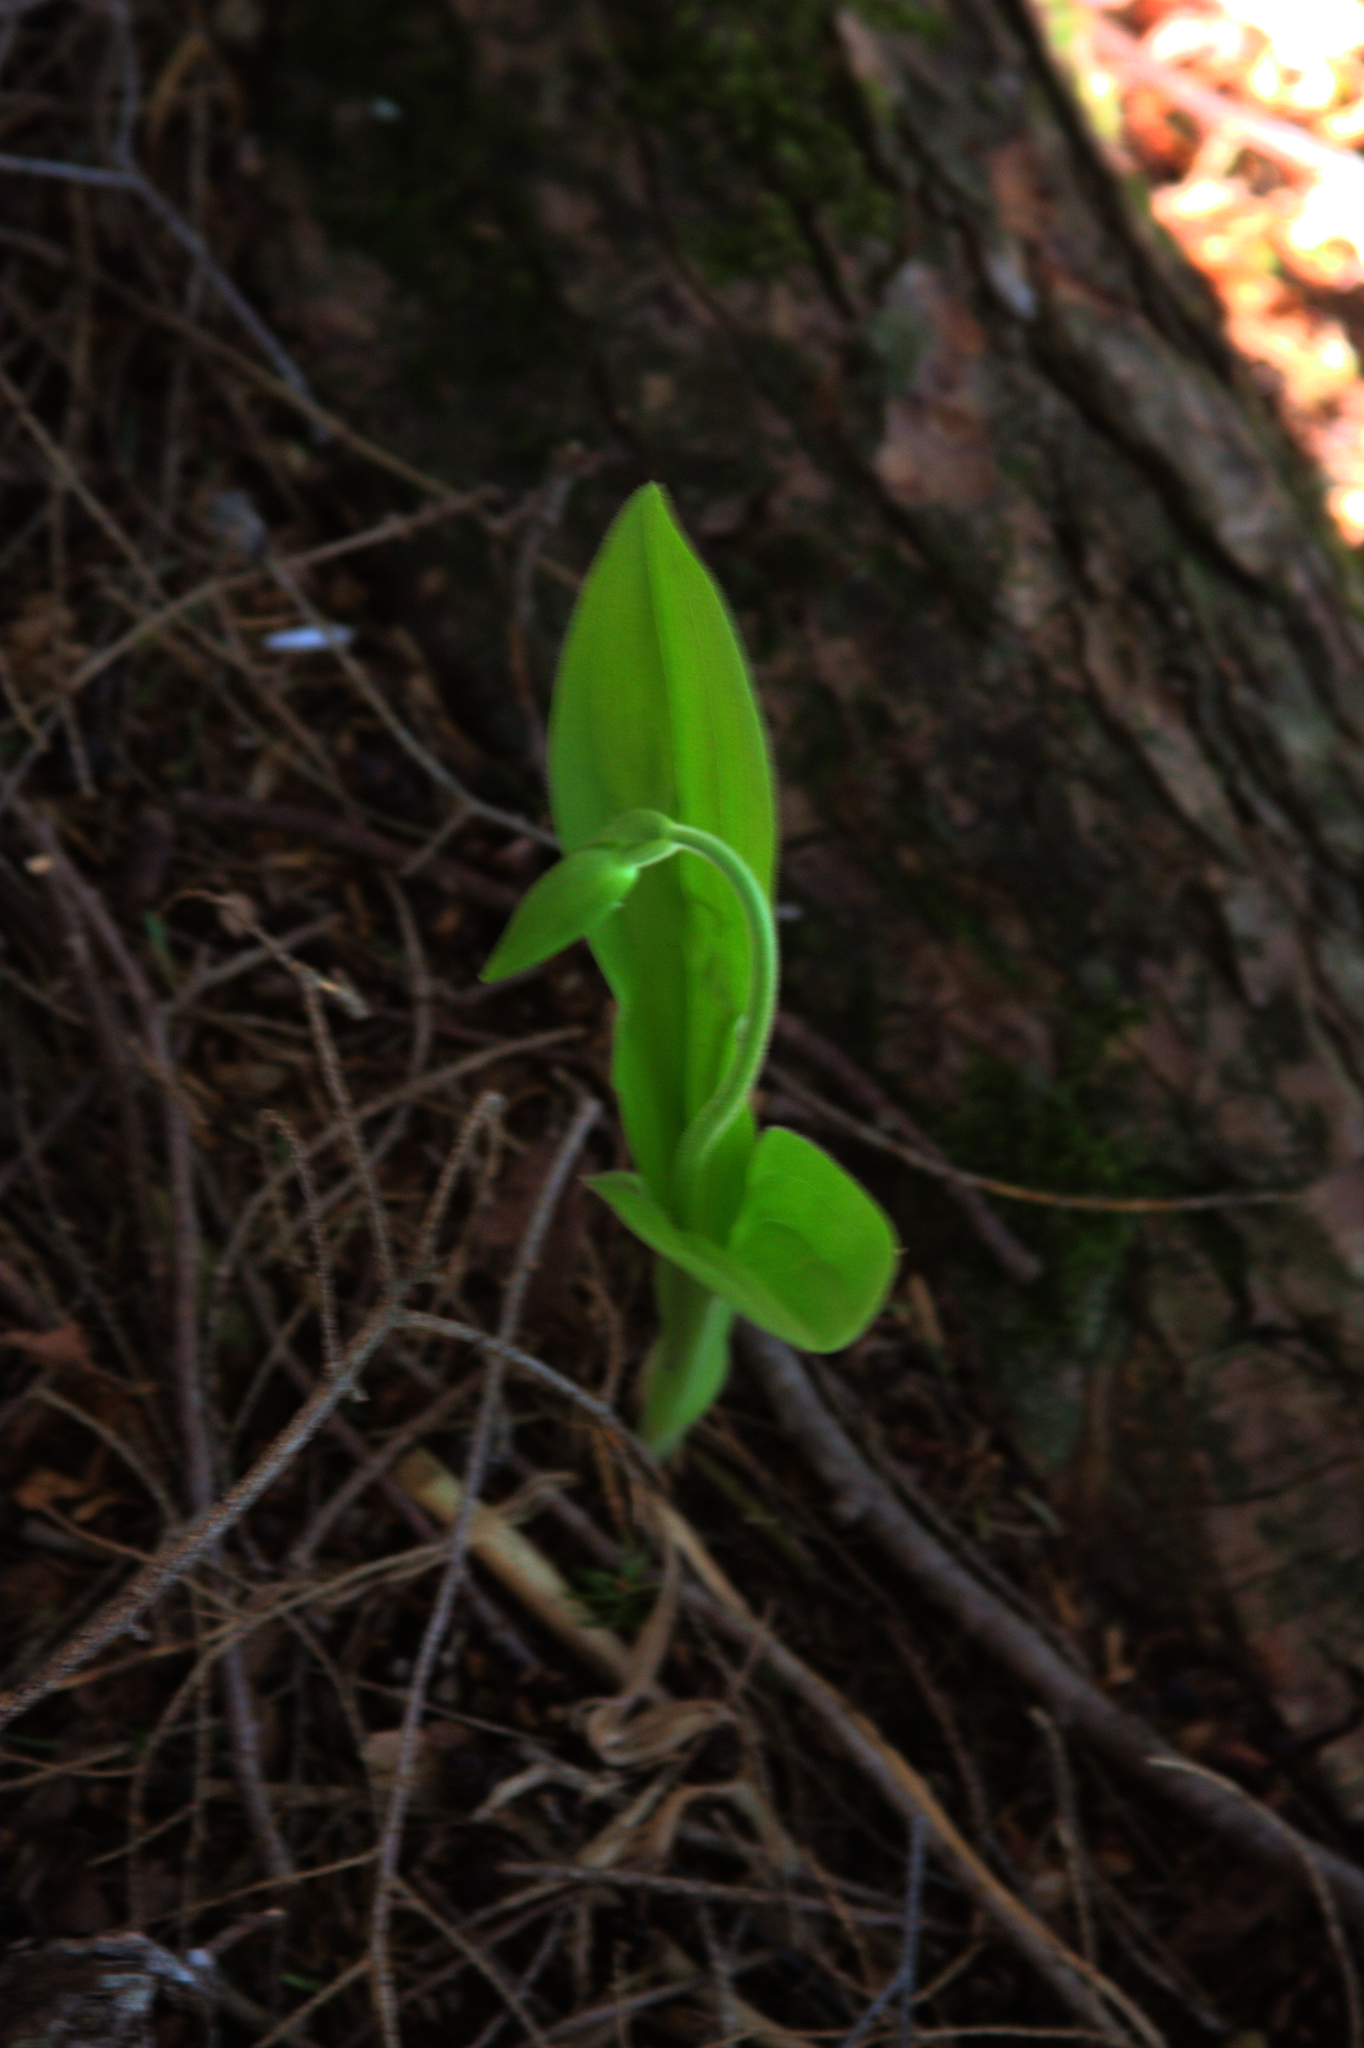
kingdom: Plantae
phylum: Tracheophyta
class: Liliopsida
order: Asparagales
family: Orchidaceae
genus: Cypripedium
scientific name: Cypripedium acaule
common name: Pink lady's-slipper
